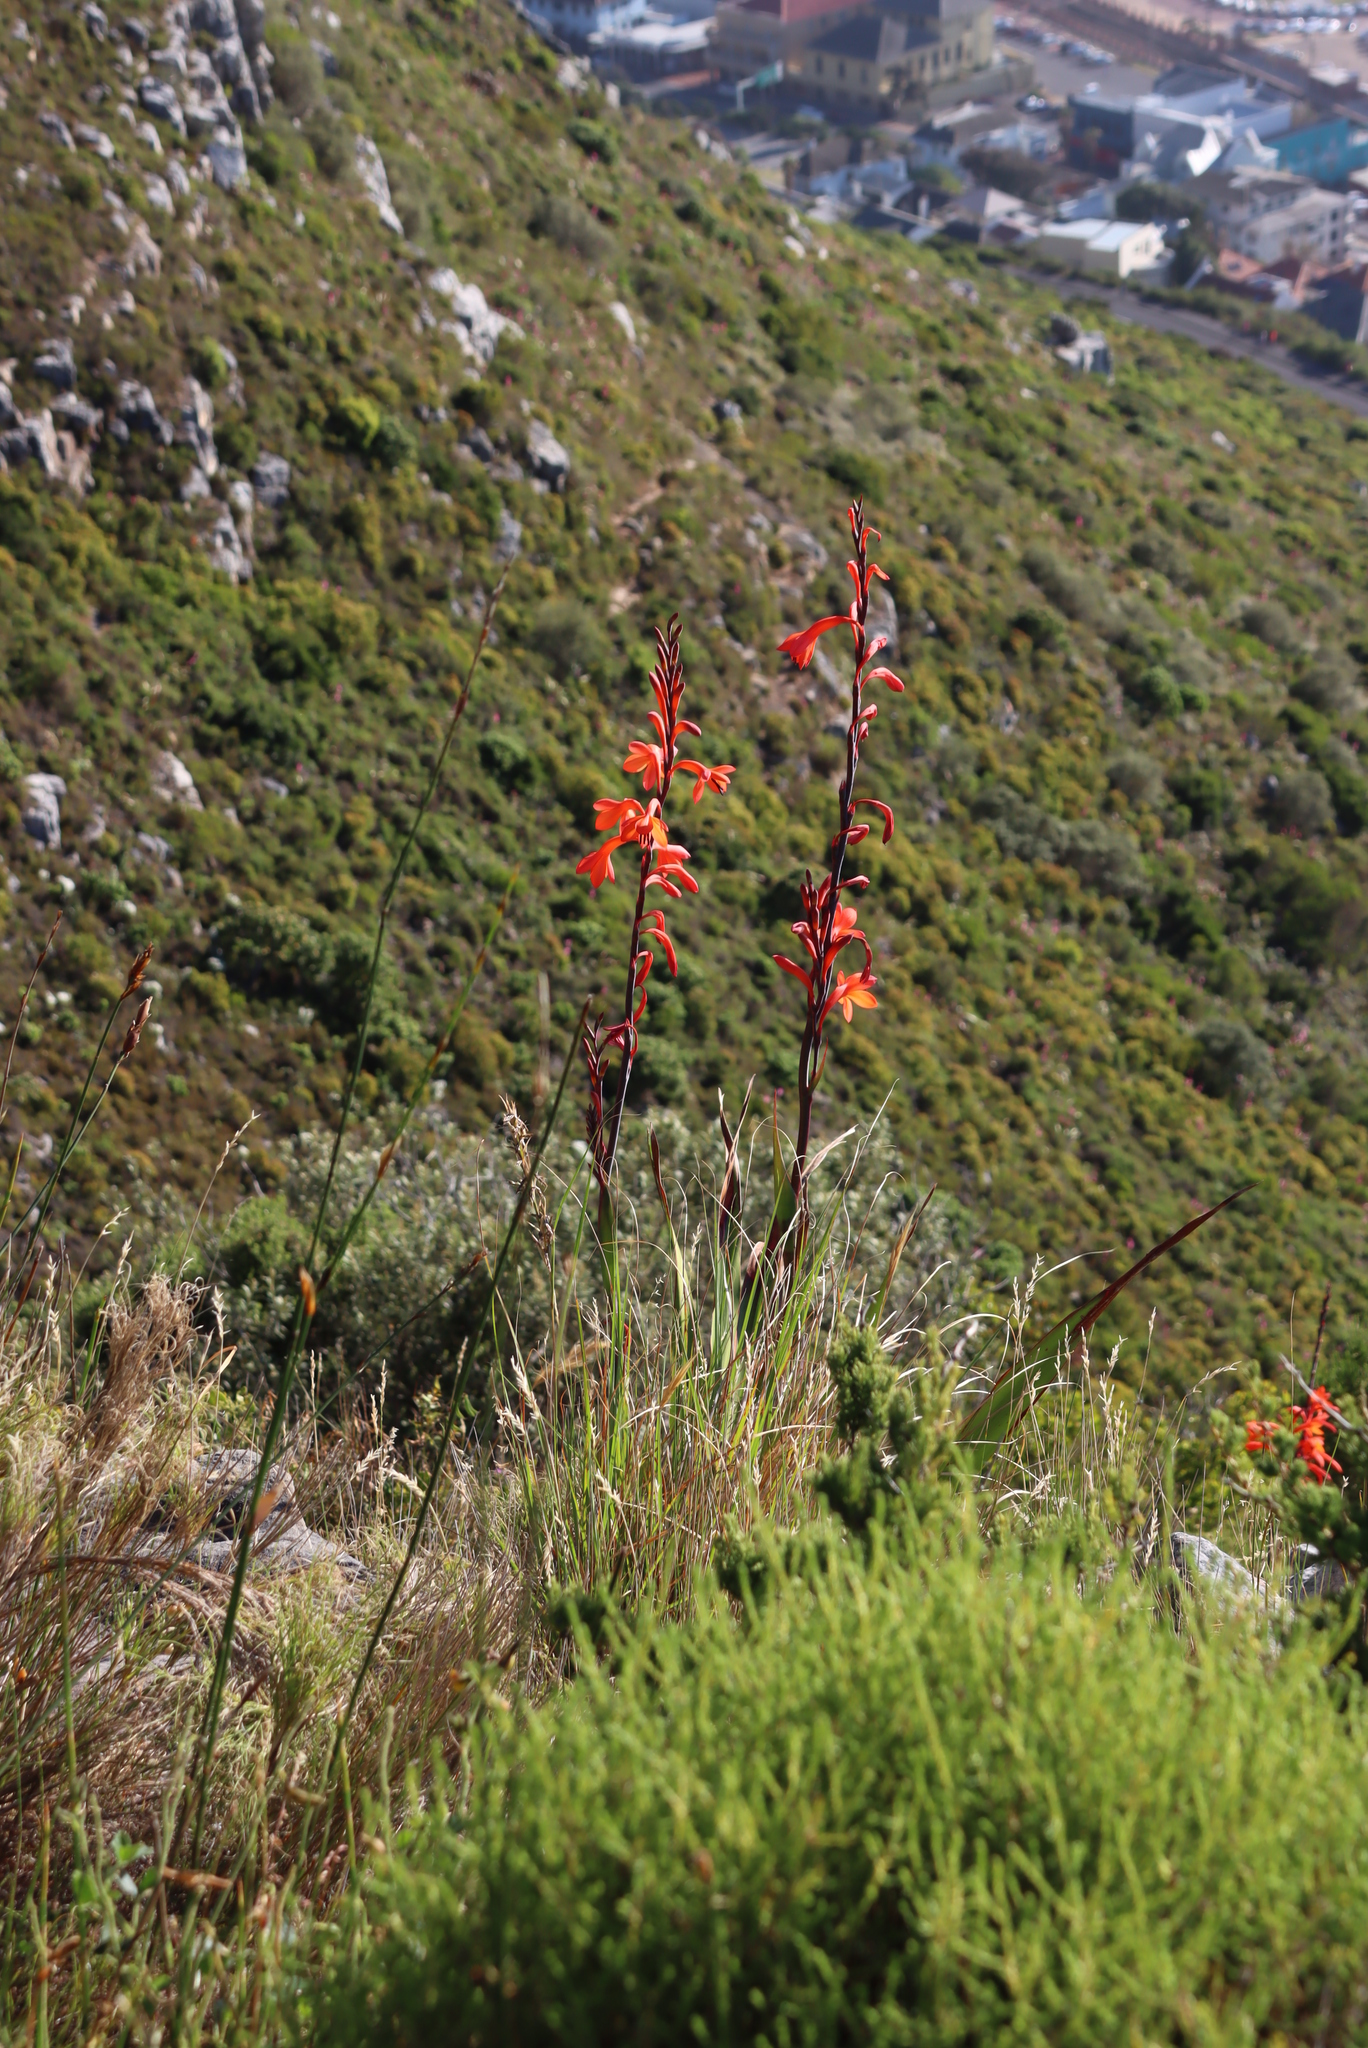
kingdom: Plantae
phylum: Tracheophyta
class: Liliopsida
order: Asparagales
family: Iridaceae
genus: Watsonia
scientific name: Watsonia tabularis
